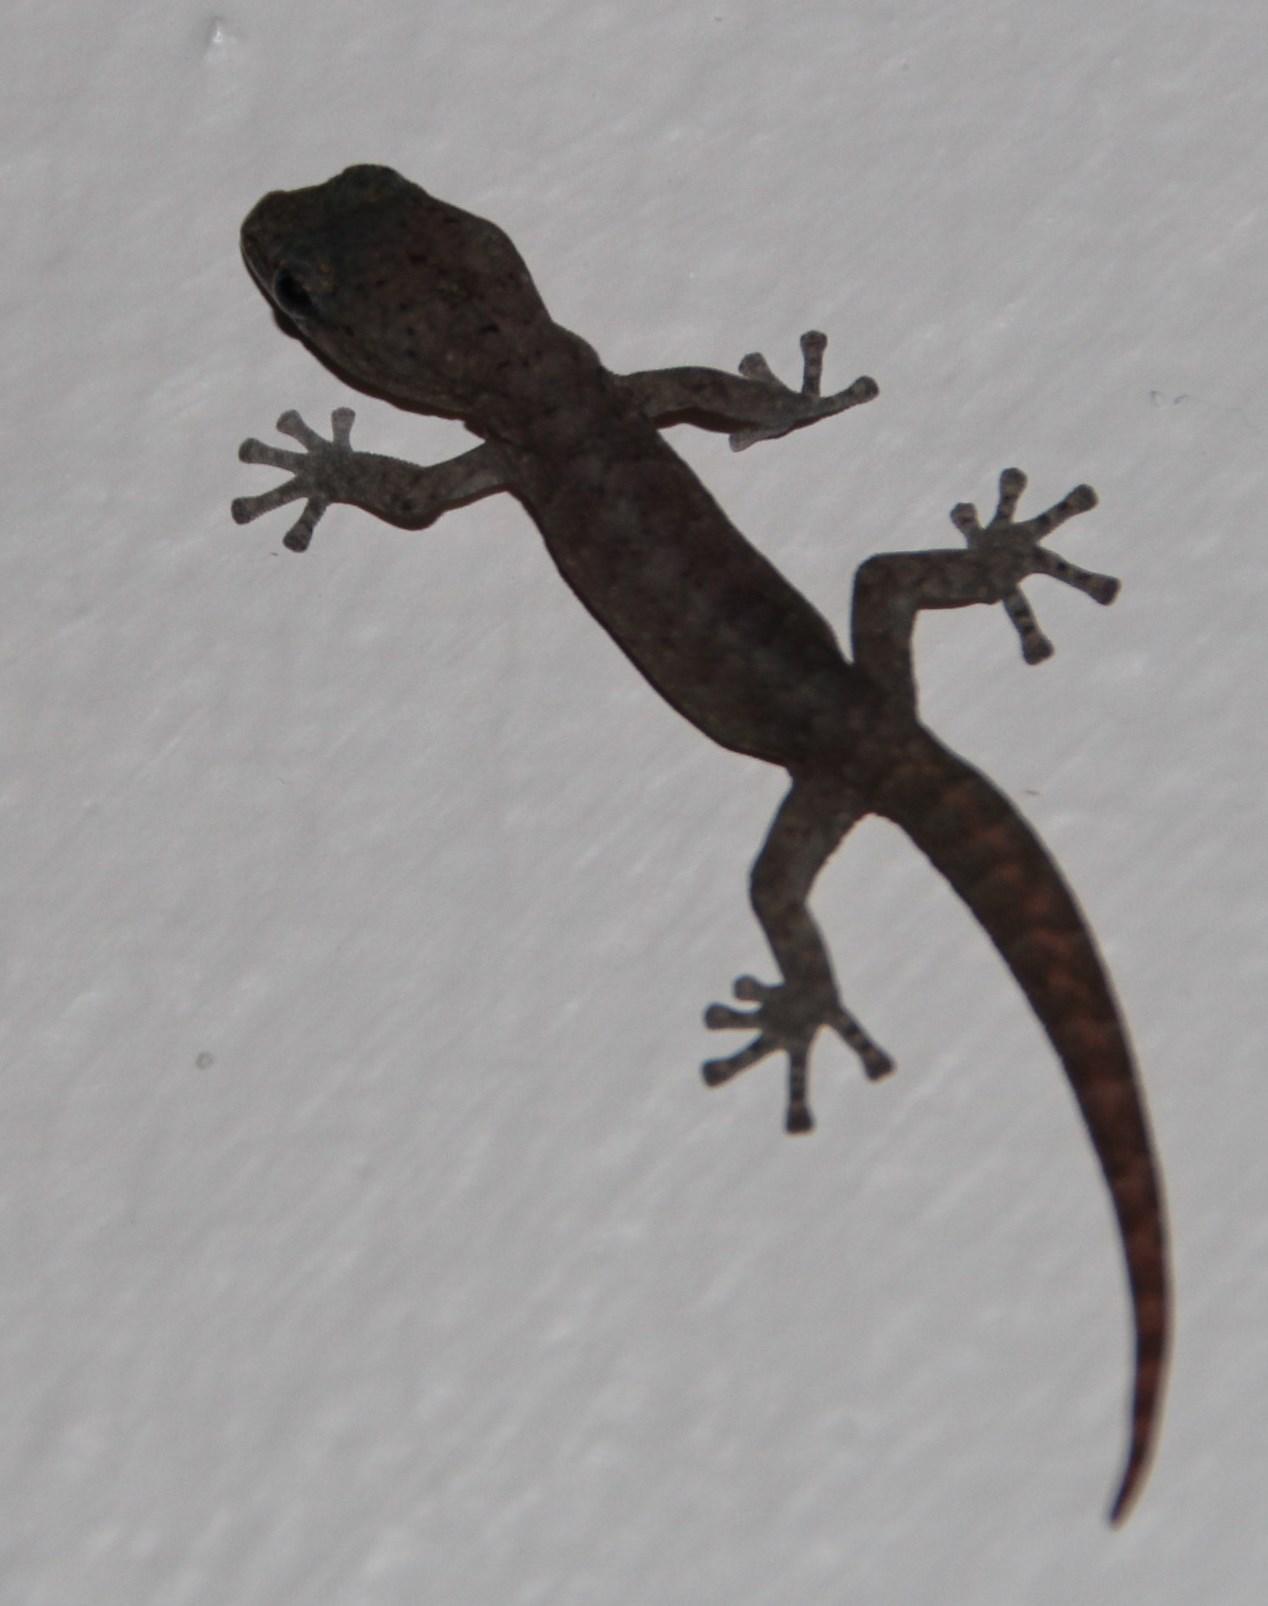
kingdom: Animalia
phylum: Chordata
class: Squamata
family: Gekkonidae
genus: Afrogecko
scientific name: Afrogecko porphyreus
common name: Marbled leaf-toed gecko
